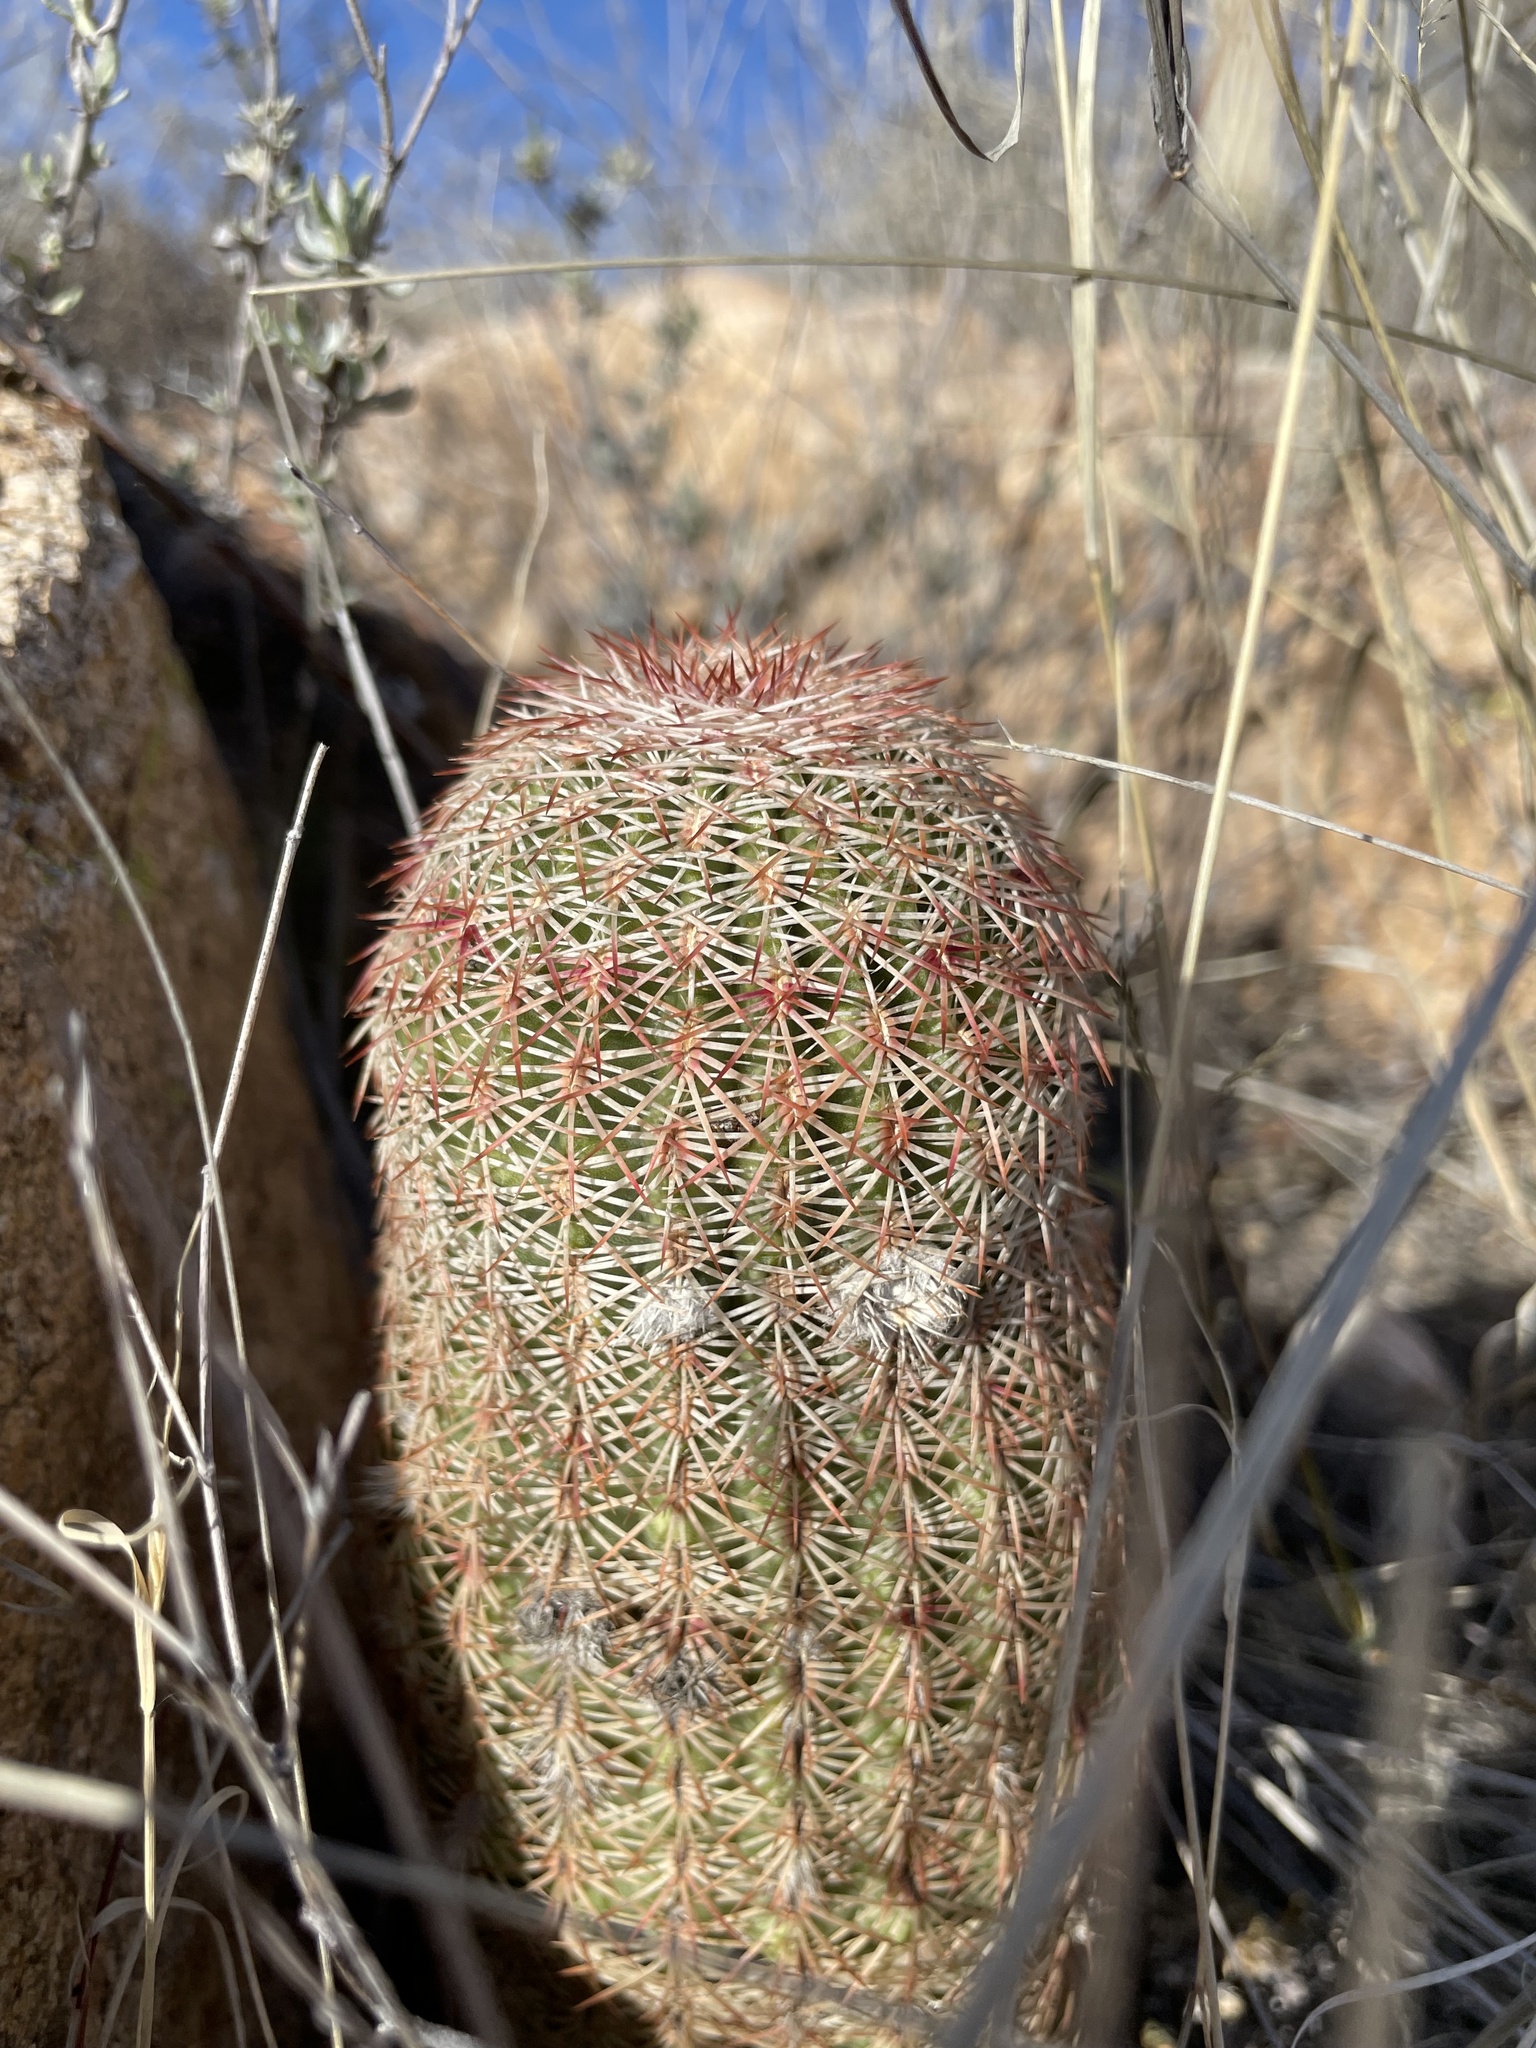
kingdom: Plantae
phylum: Tracheophyta
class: Magnoliopsida
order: Caryophyllales
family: Cactaceae
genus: Echinocereus
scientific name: Echinocereus rigidissimus
